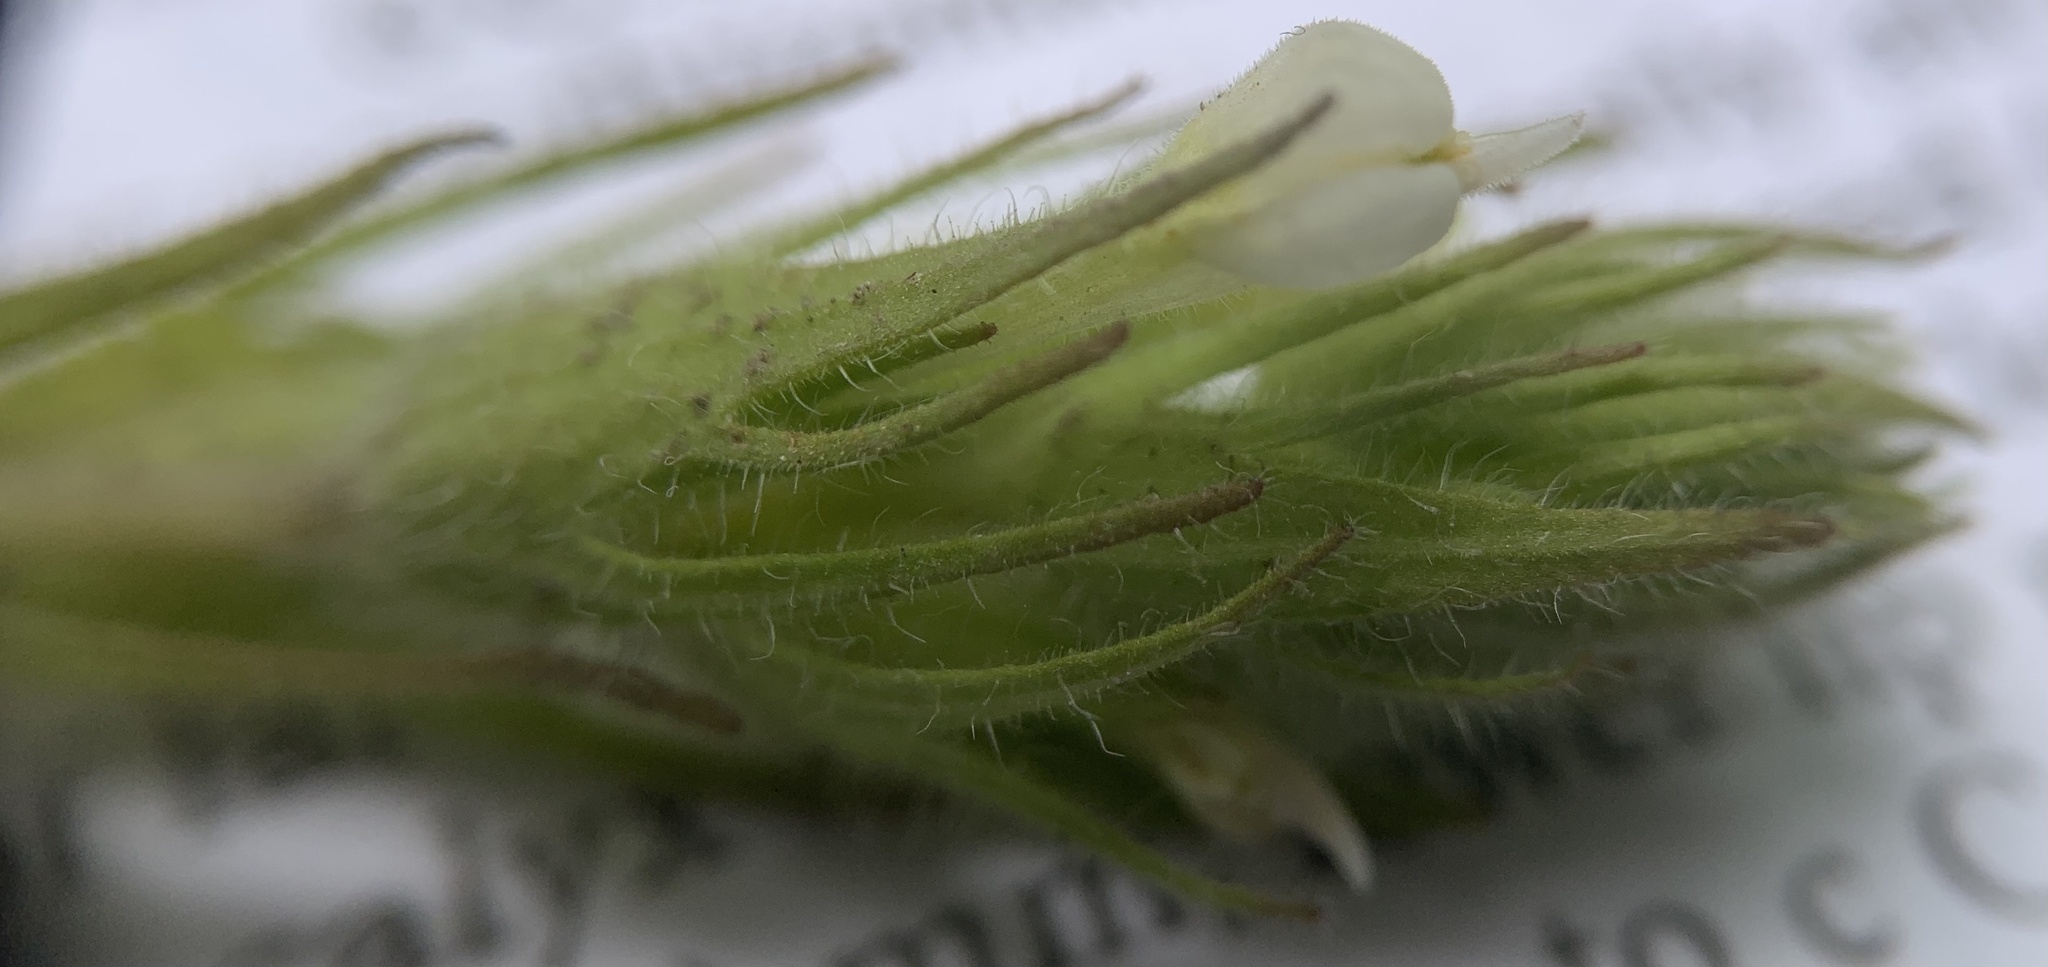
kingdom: Plantae
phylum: Tracheophyta
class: Magnoliopsida
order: Lamiales
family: Orobanchaceae
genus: Castilleja
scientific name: Castilleja tenuis
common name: Hairy indian paintbrush
